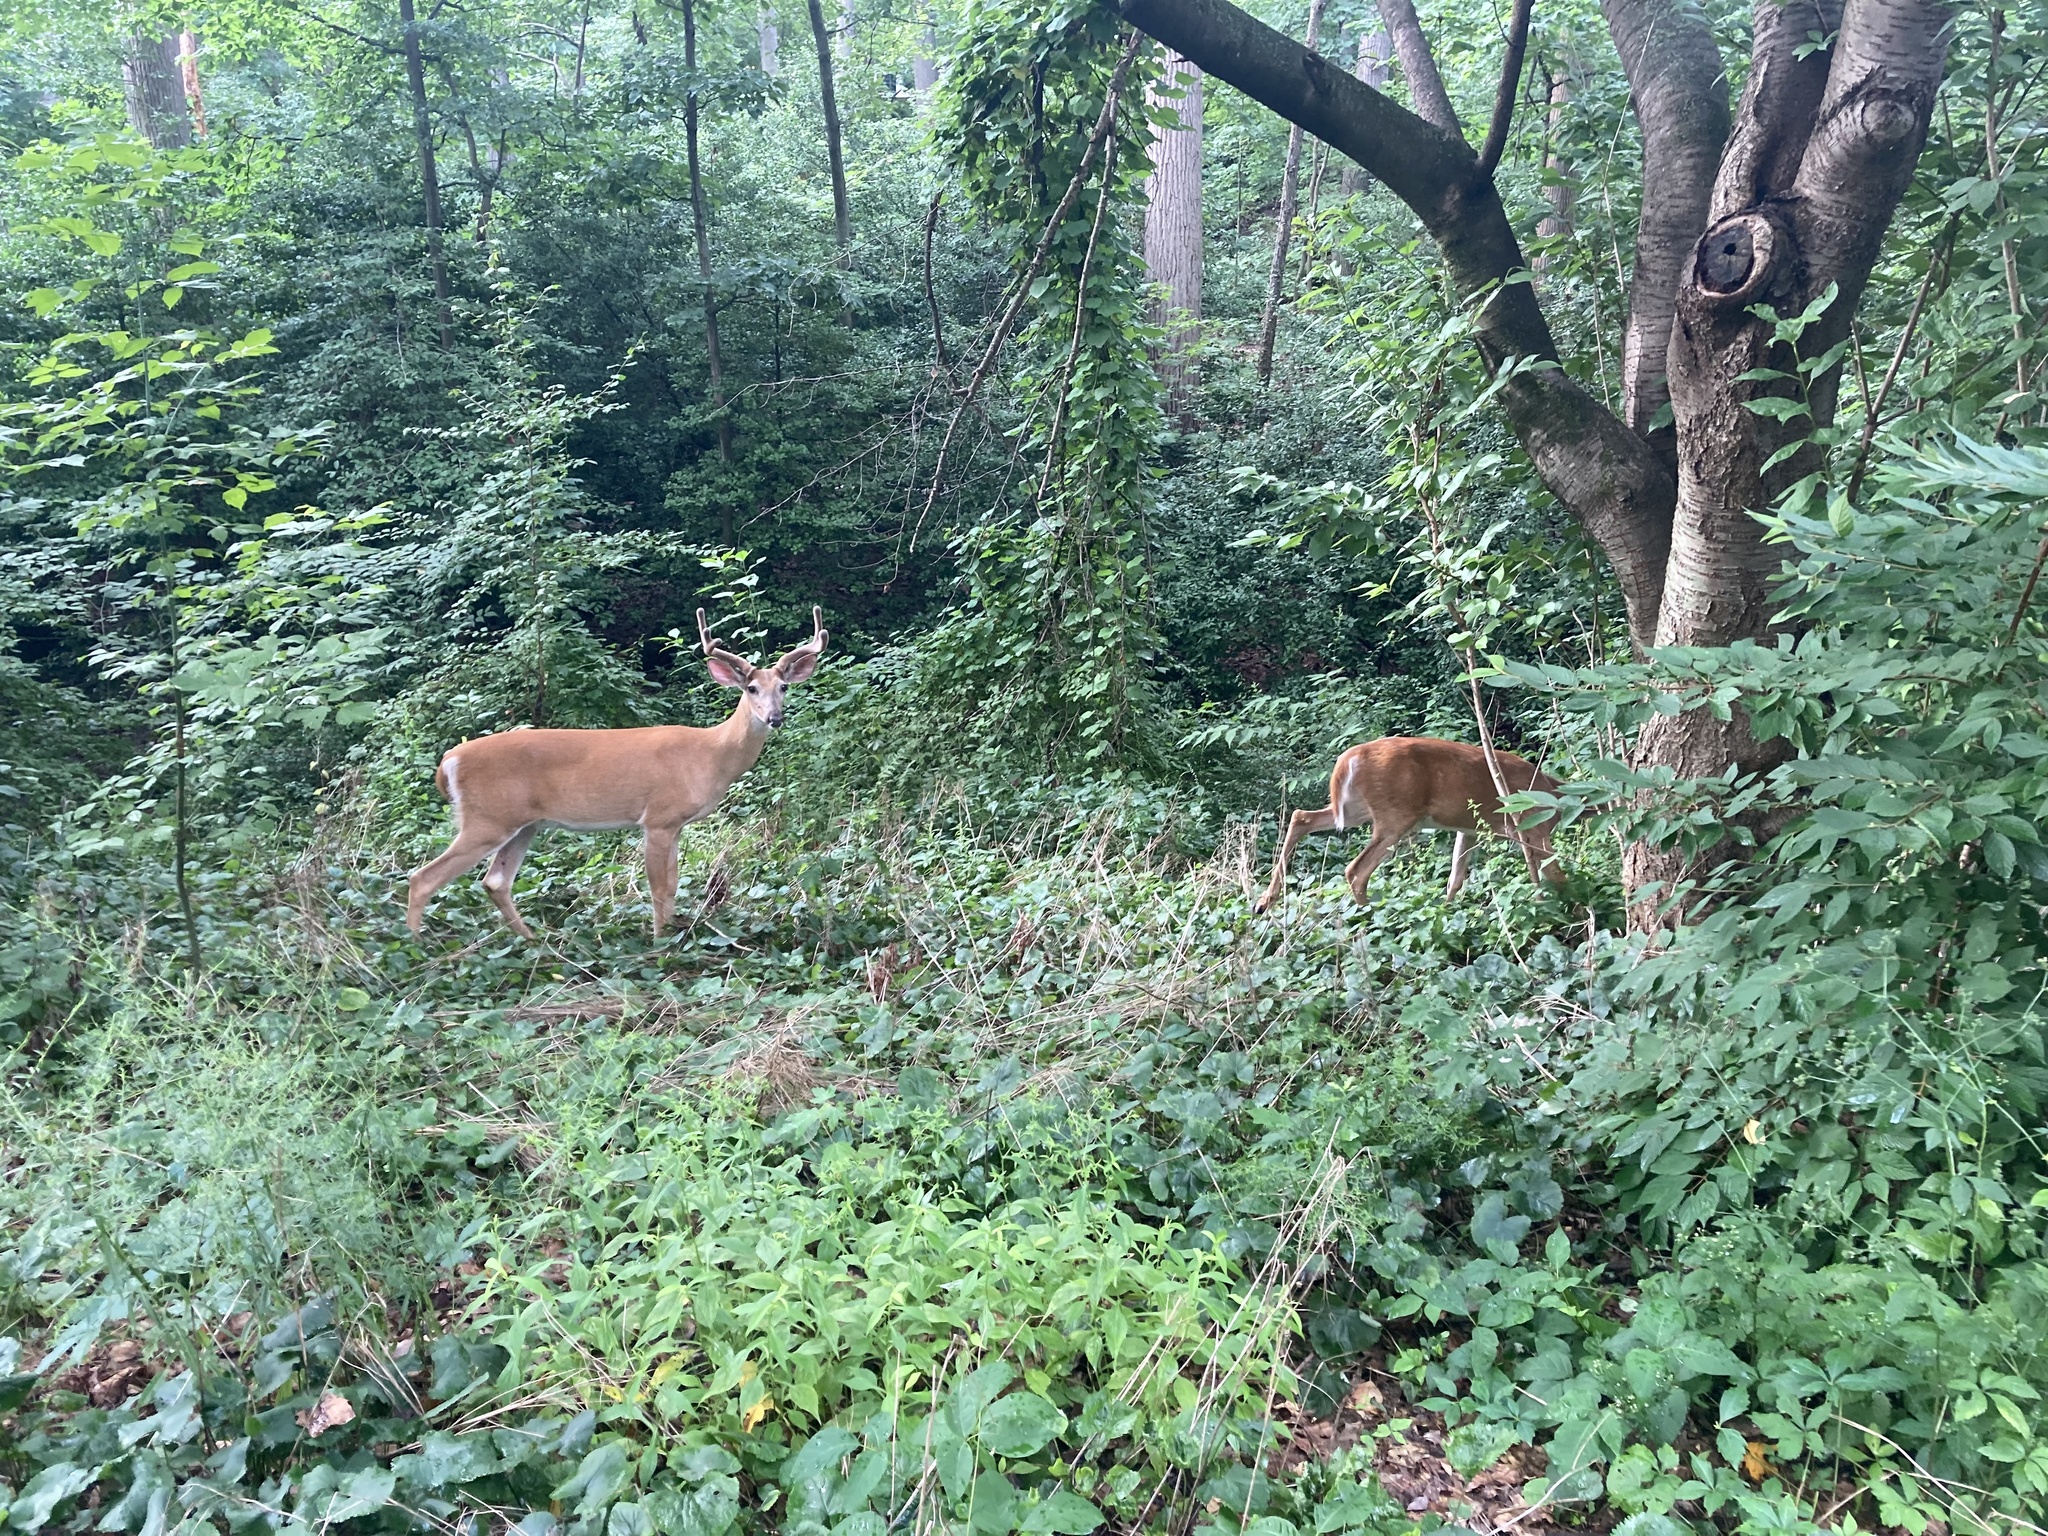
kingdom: Animalia
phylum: Chordata
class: Mammalia
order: Artiodactyla
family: Cervidae
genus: Odocoileus
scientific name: Odocoileus virginianus
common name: White-tailed deer
